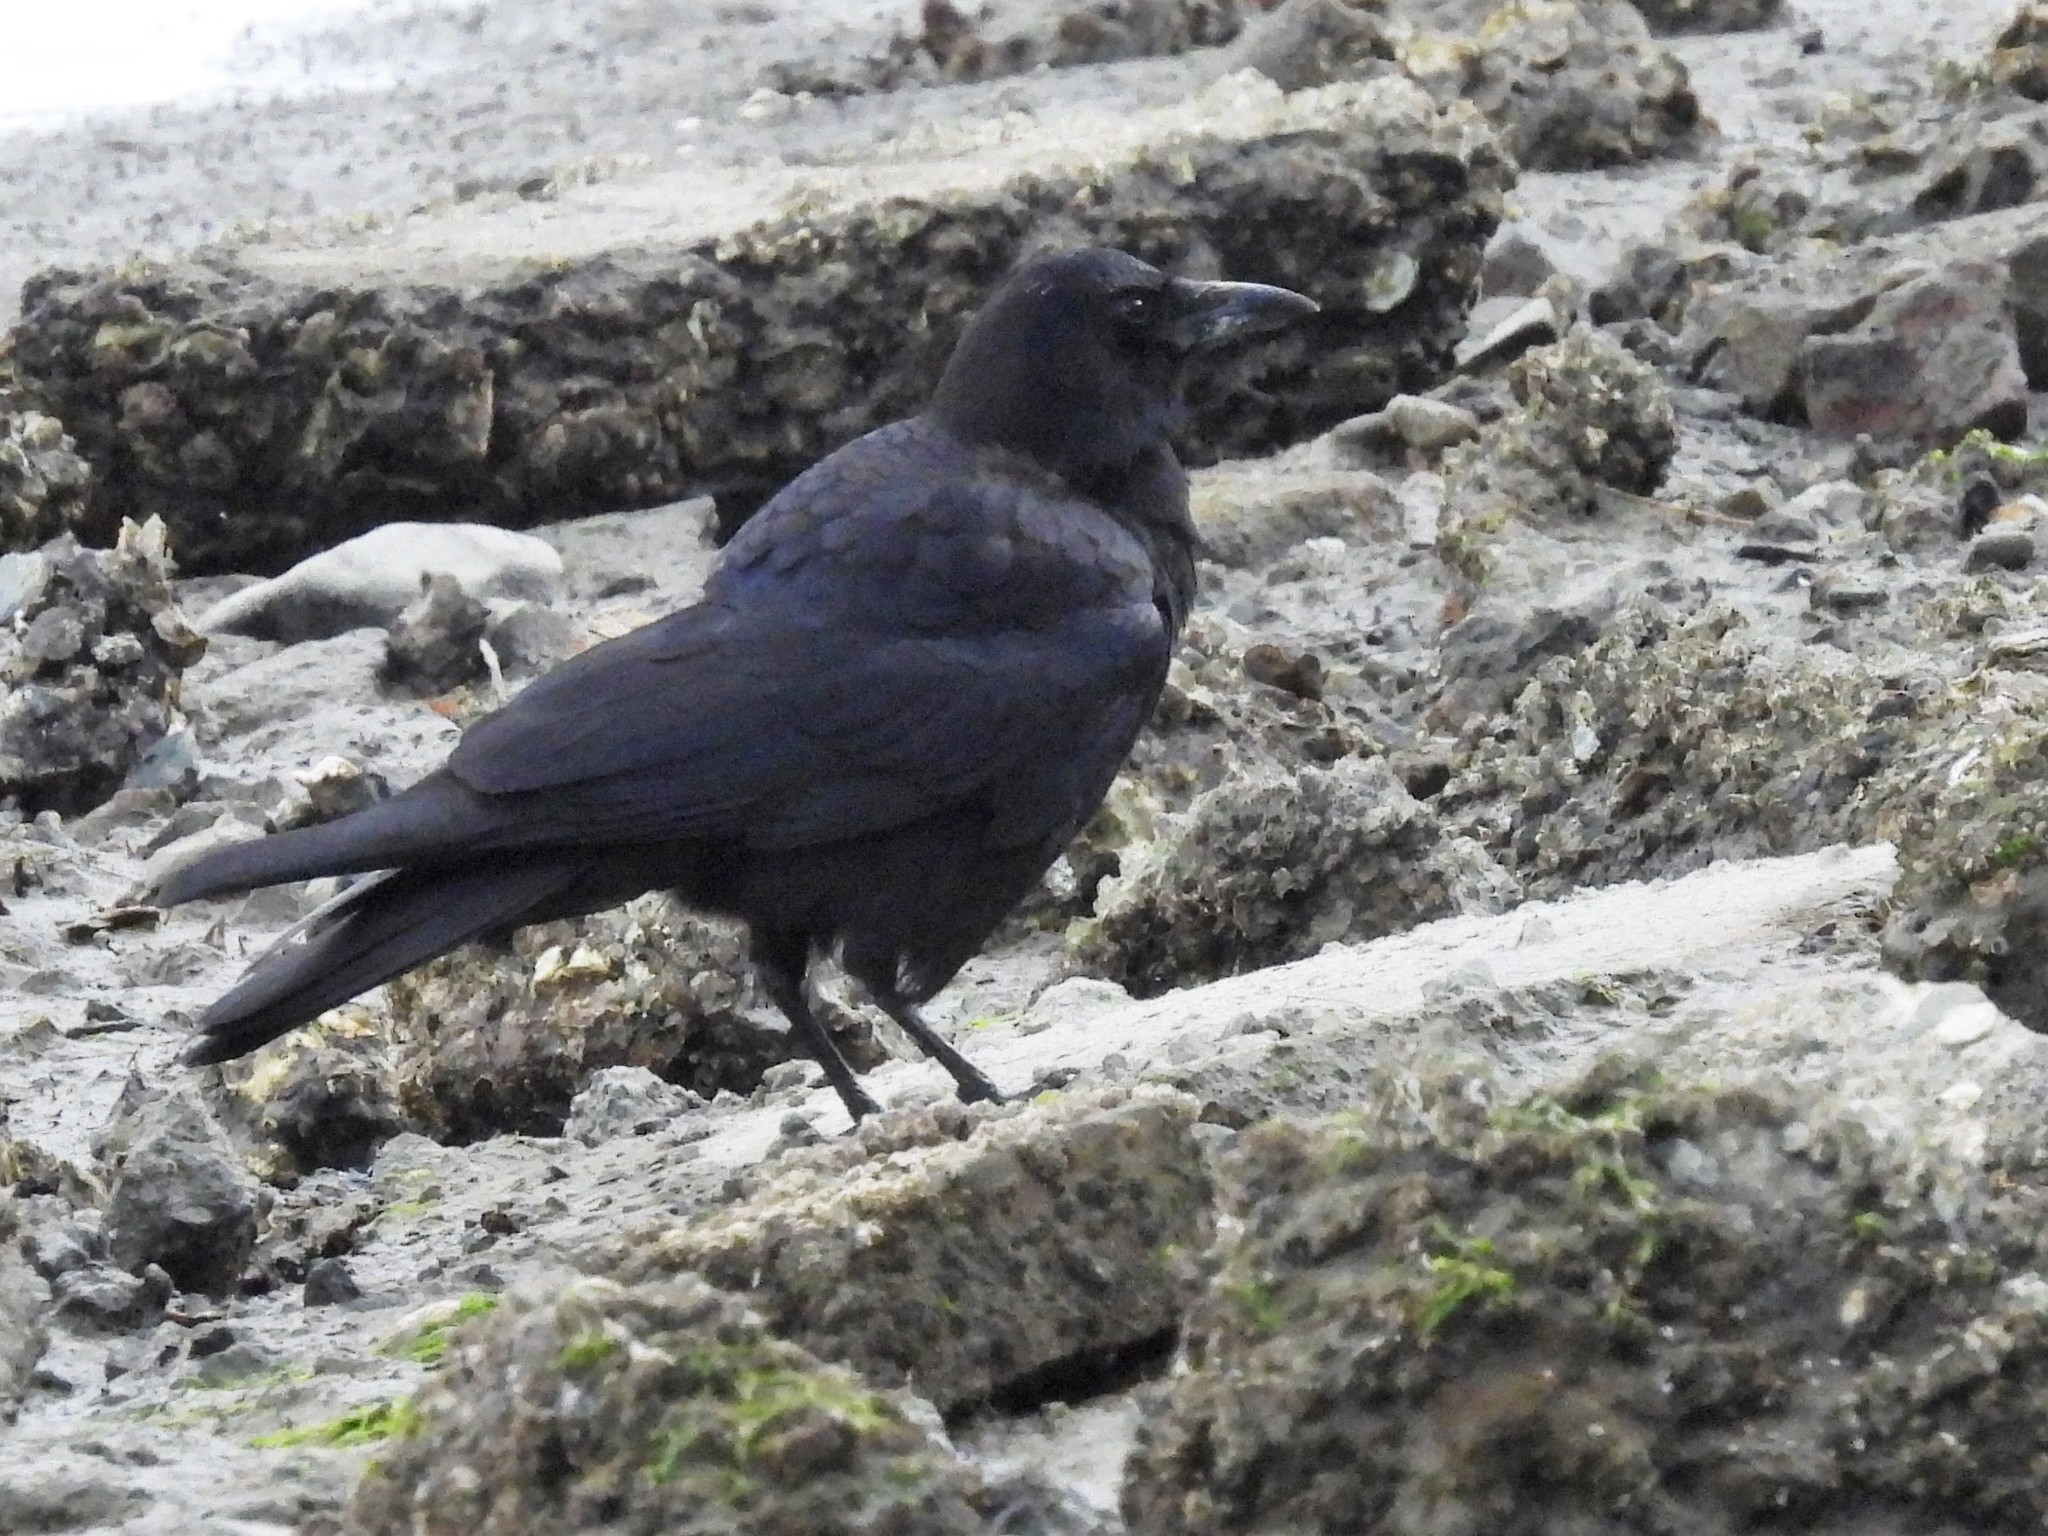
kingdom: Animalia
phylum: Chordata
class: Aves
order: Passeriformes
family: Corvidae
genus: Corvus
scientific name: Corvus brachyrhynchos
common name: American crow
